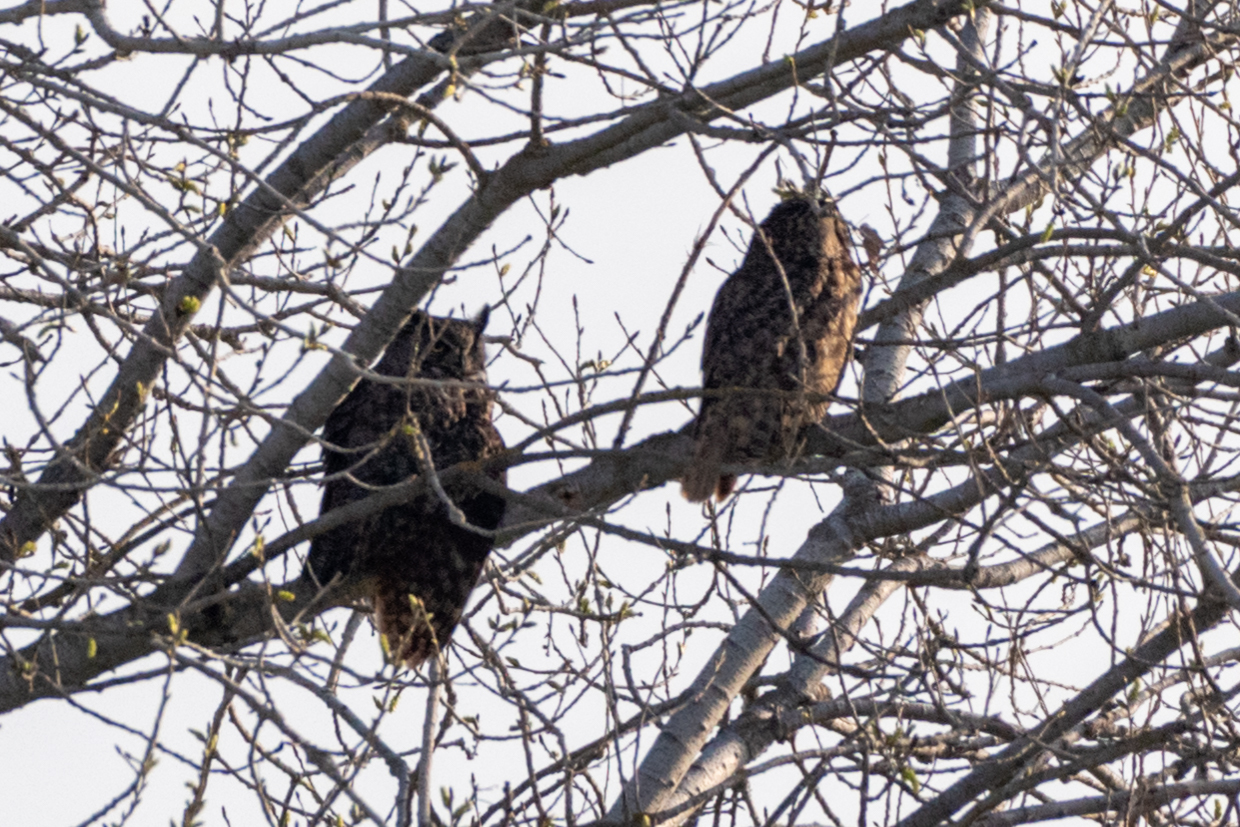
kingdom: Animalia
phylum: Chordata
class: Aves
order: Strigiformes
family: Strigidae
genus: Bubo
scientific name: Bubo virginianus
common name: Great horned owl
